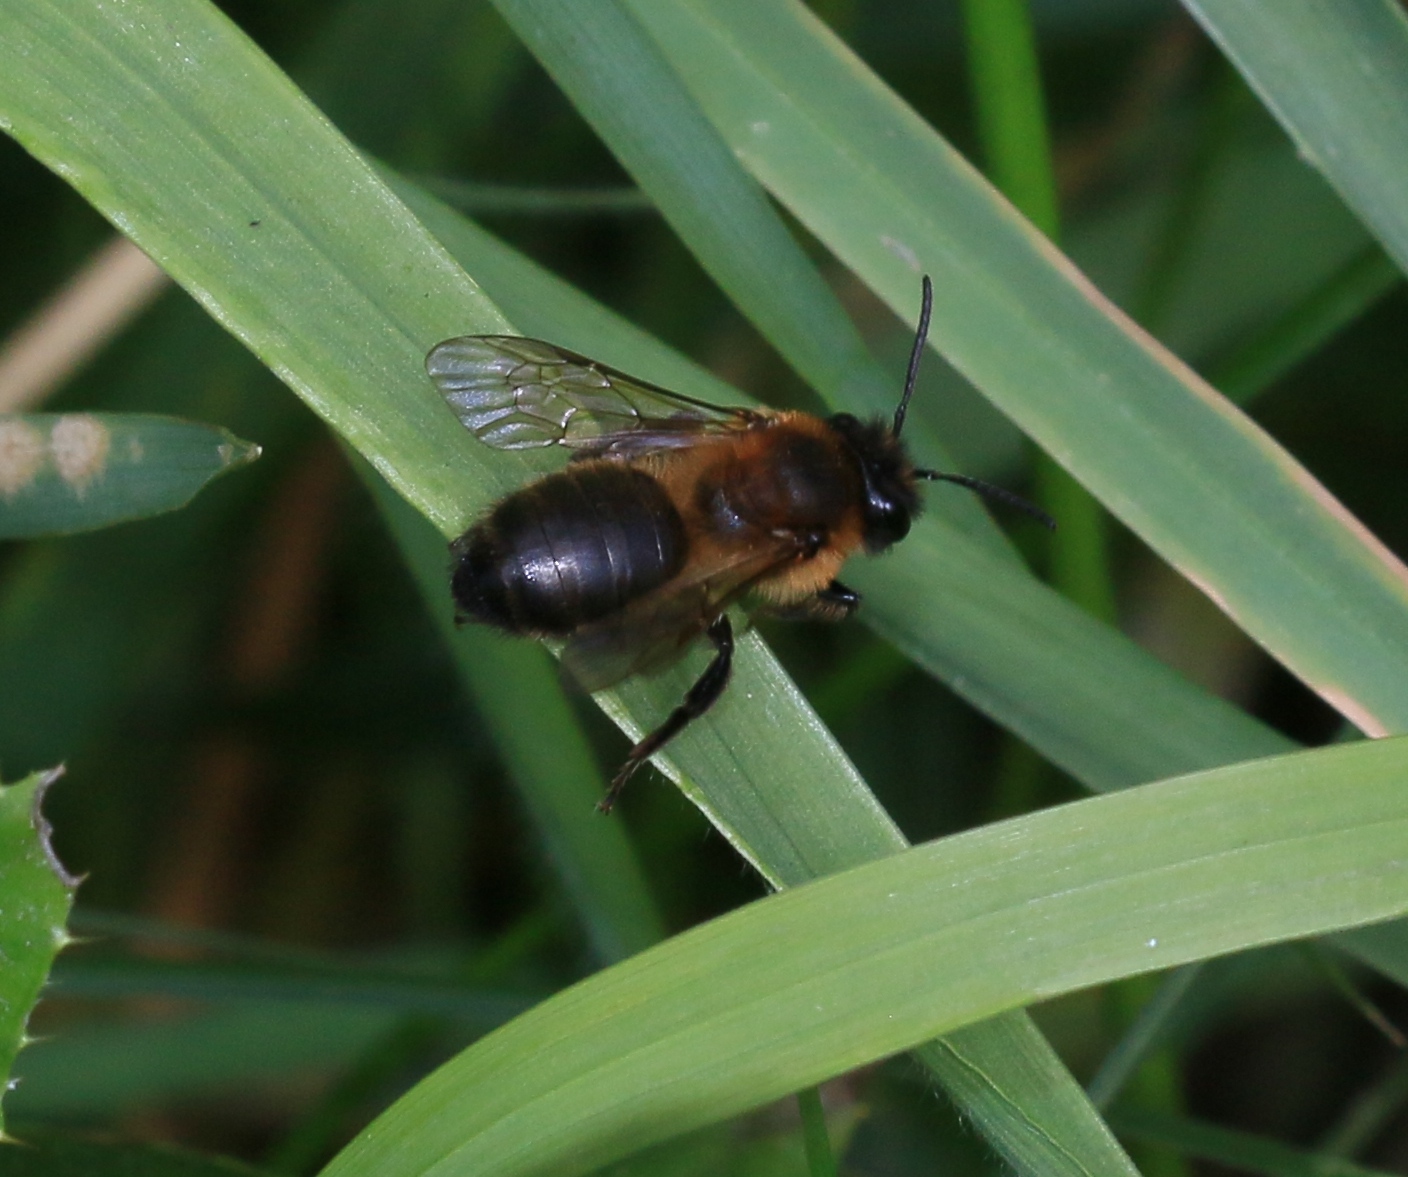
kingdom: Animalia
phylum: Arthropoda
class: Insecta
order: Hymenoptera
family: Andrenidae
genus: Andrena
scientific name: Andrena carantonica
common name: Chocolate mining bee
